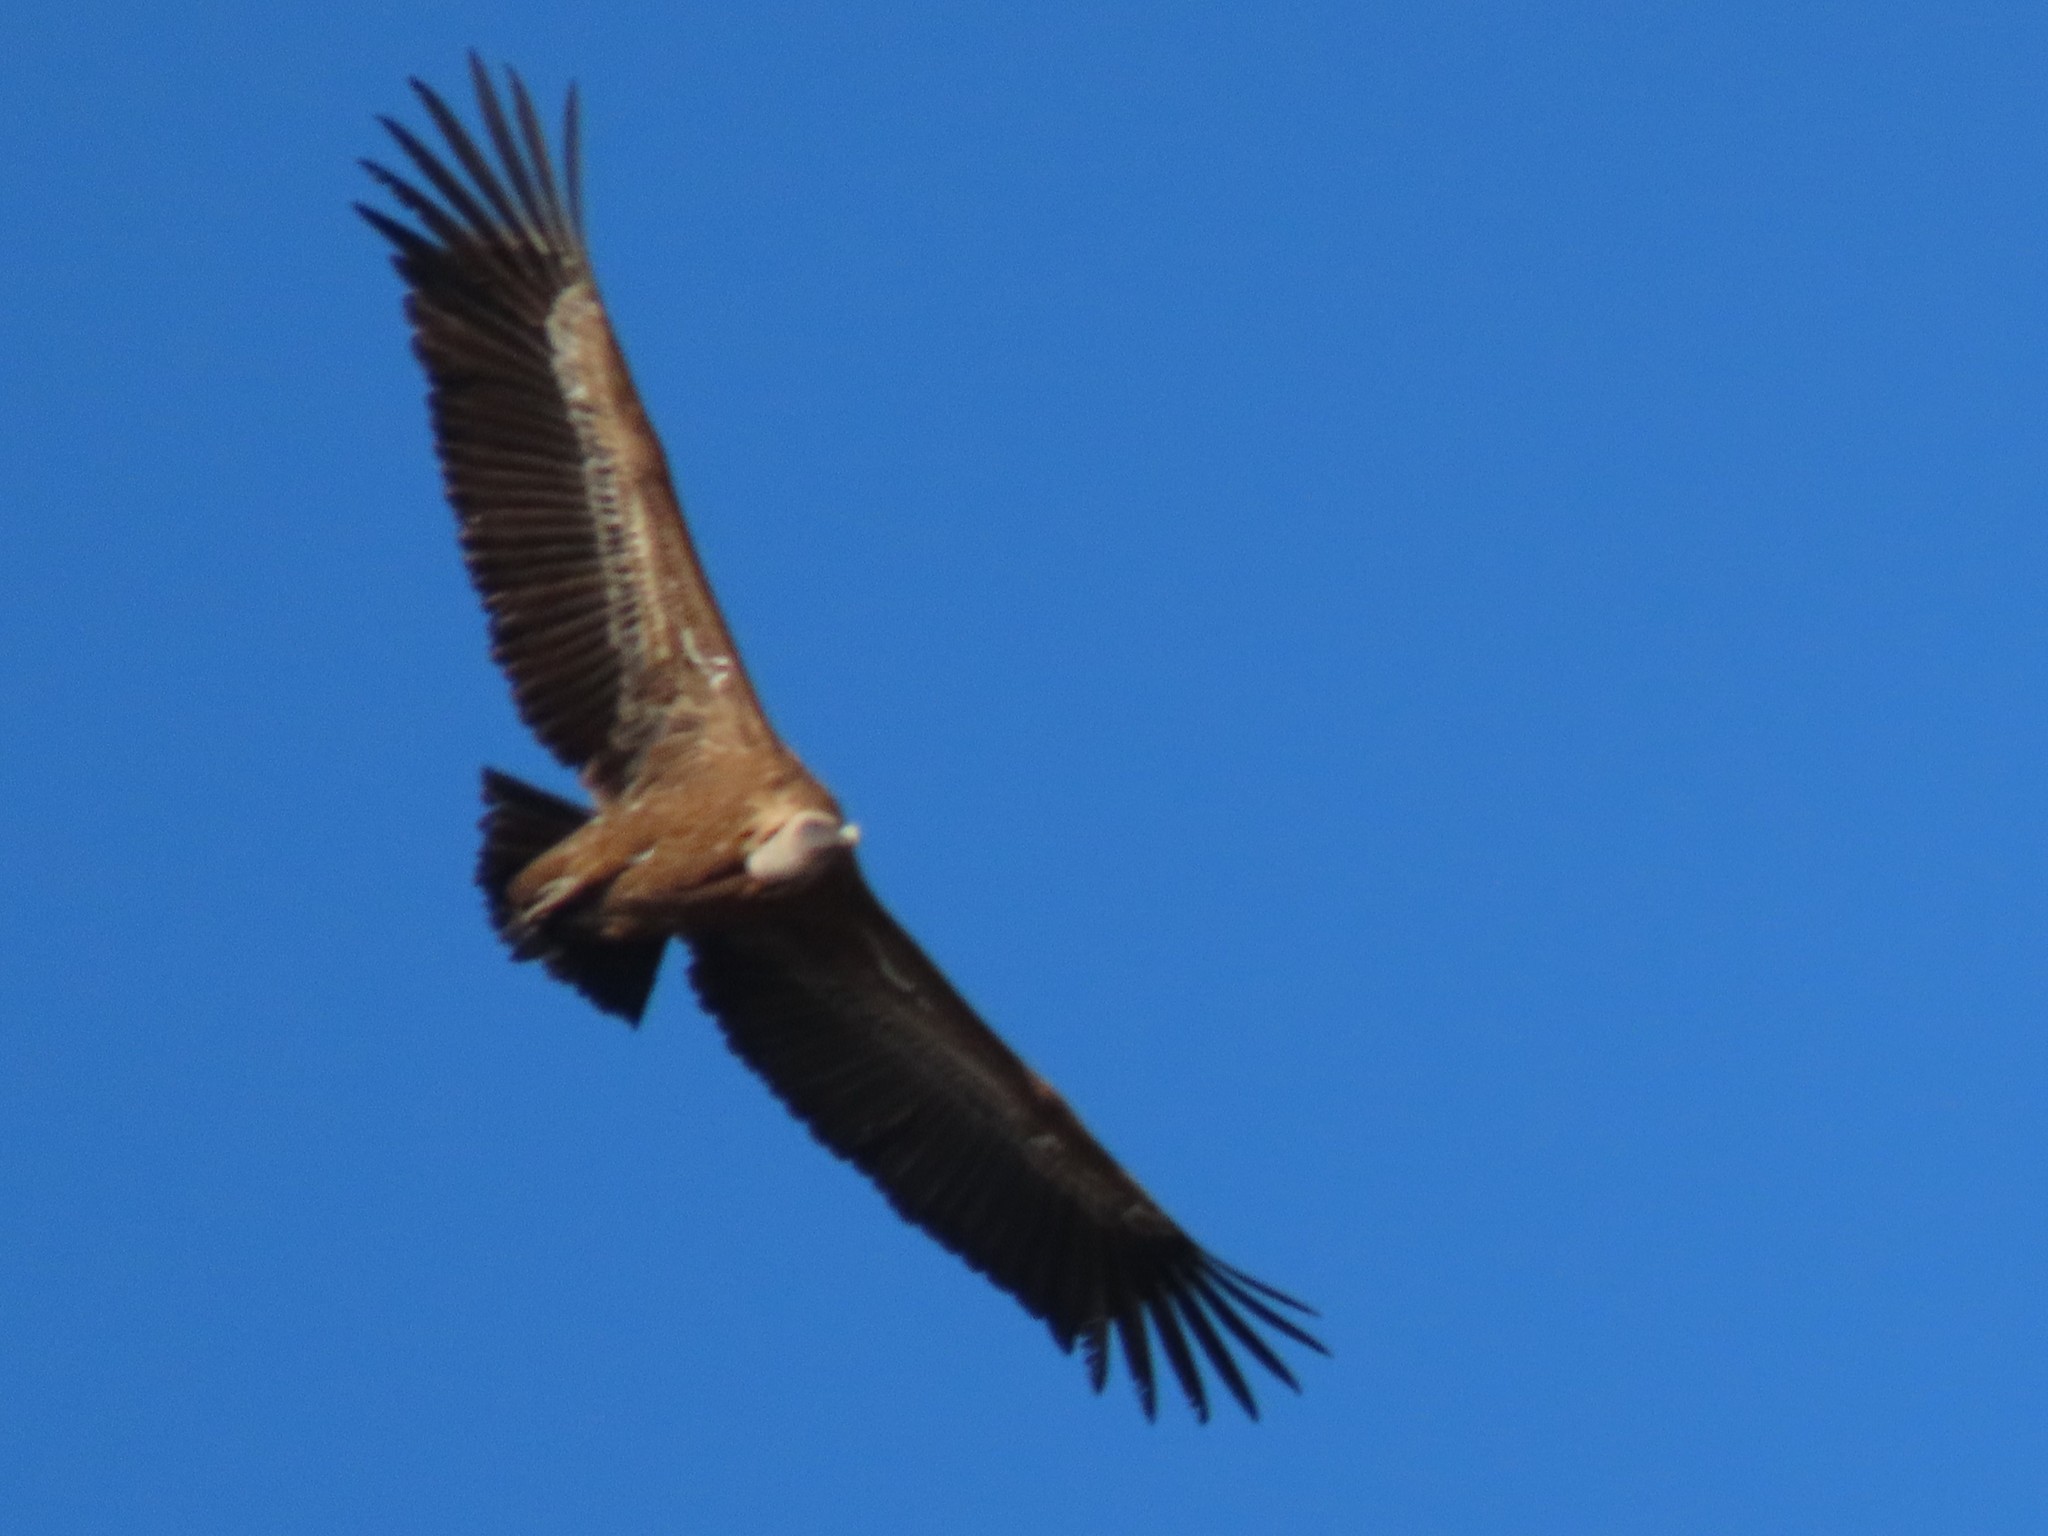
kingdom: Animalia
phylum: Chordata
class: Aves
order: Accipitriformes
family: Accipitridae
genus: Gyps
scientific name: Gyps fulvus
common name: Griffon vulture
